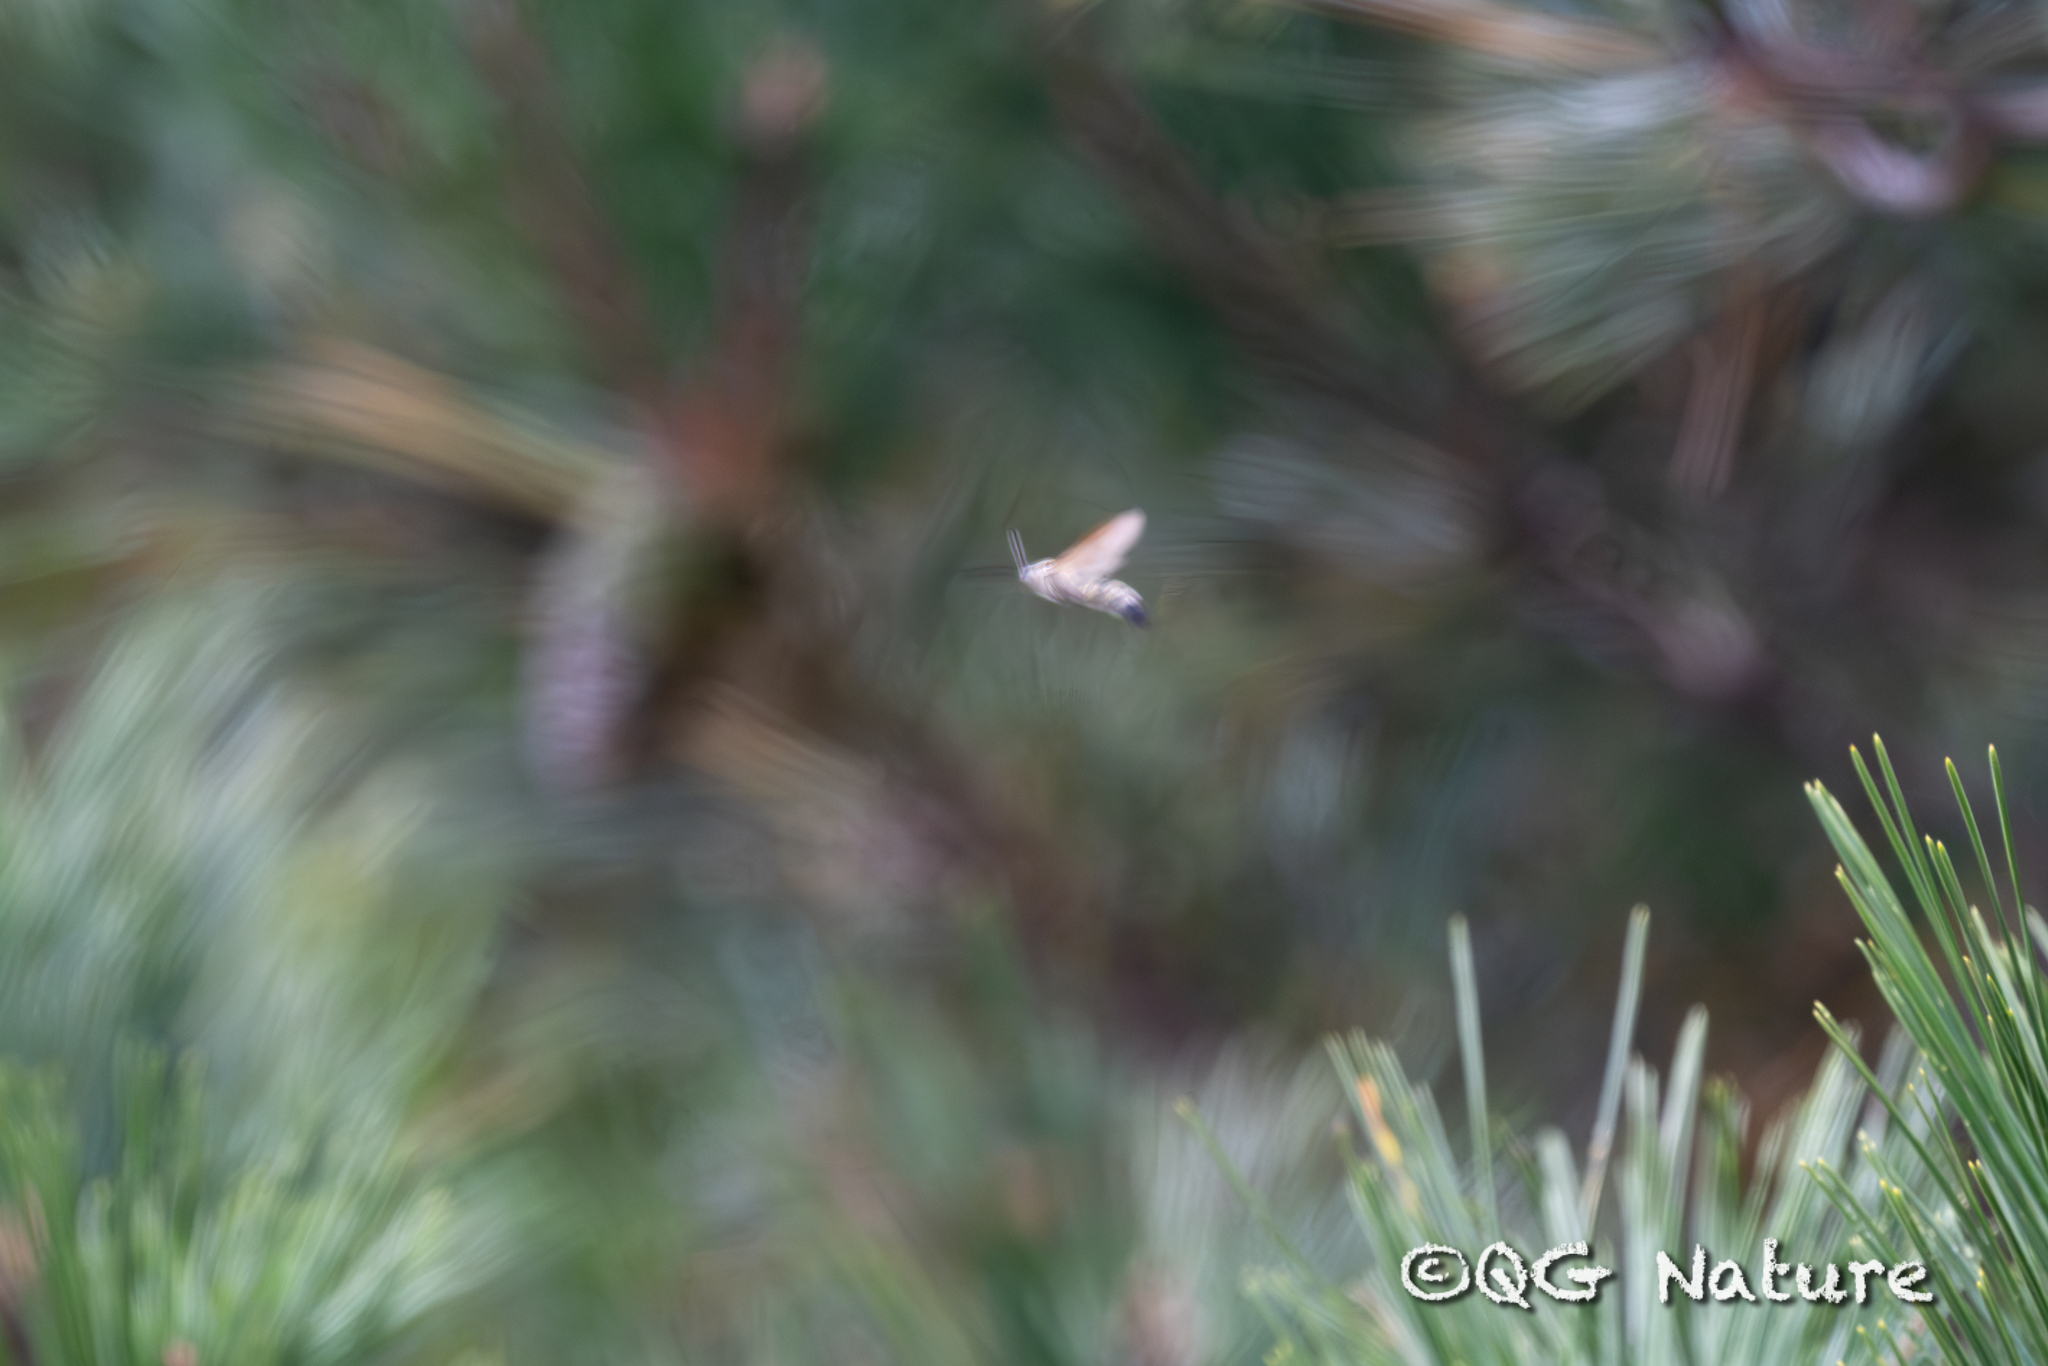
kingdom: Animalia
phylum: Arthropoda
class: Insecta
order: Lepidoptera
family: Sphingidae
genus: Macroglossum
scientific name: Macroglossum stellatarum
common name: Humming-bird hawk-moth
